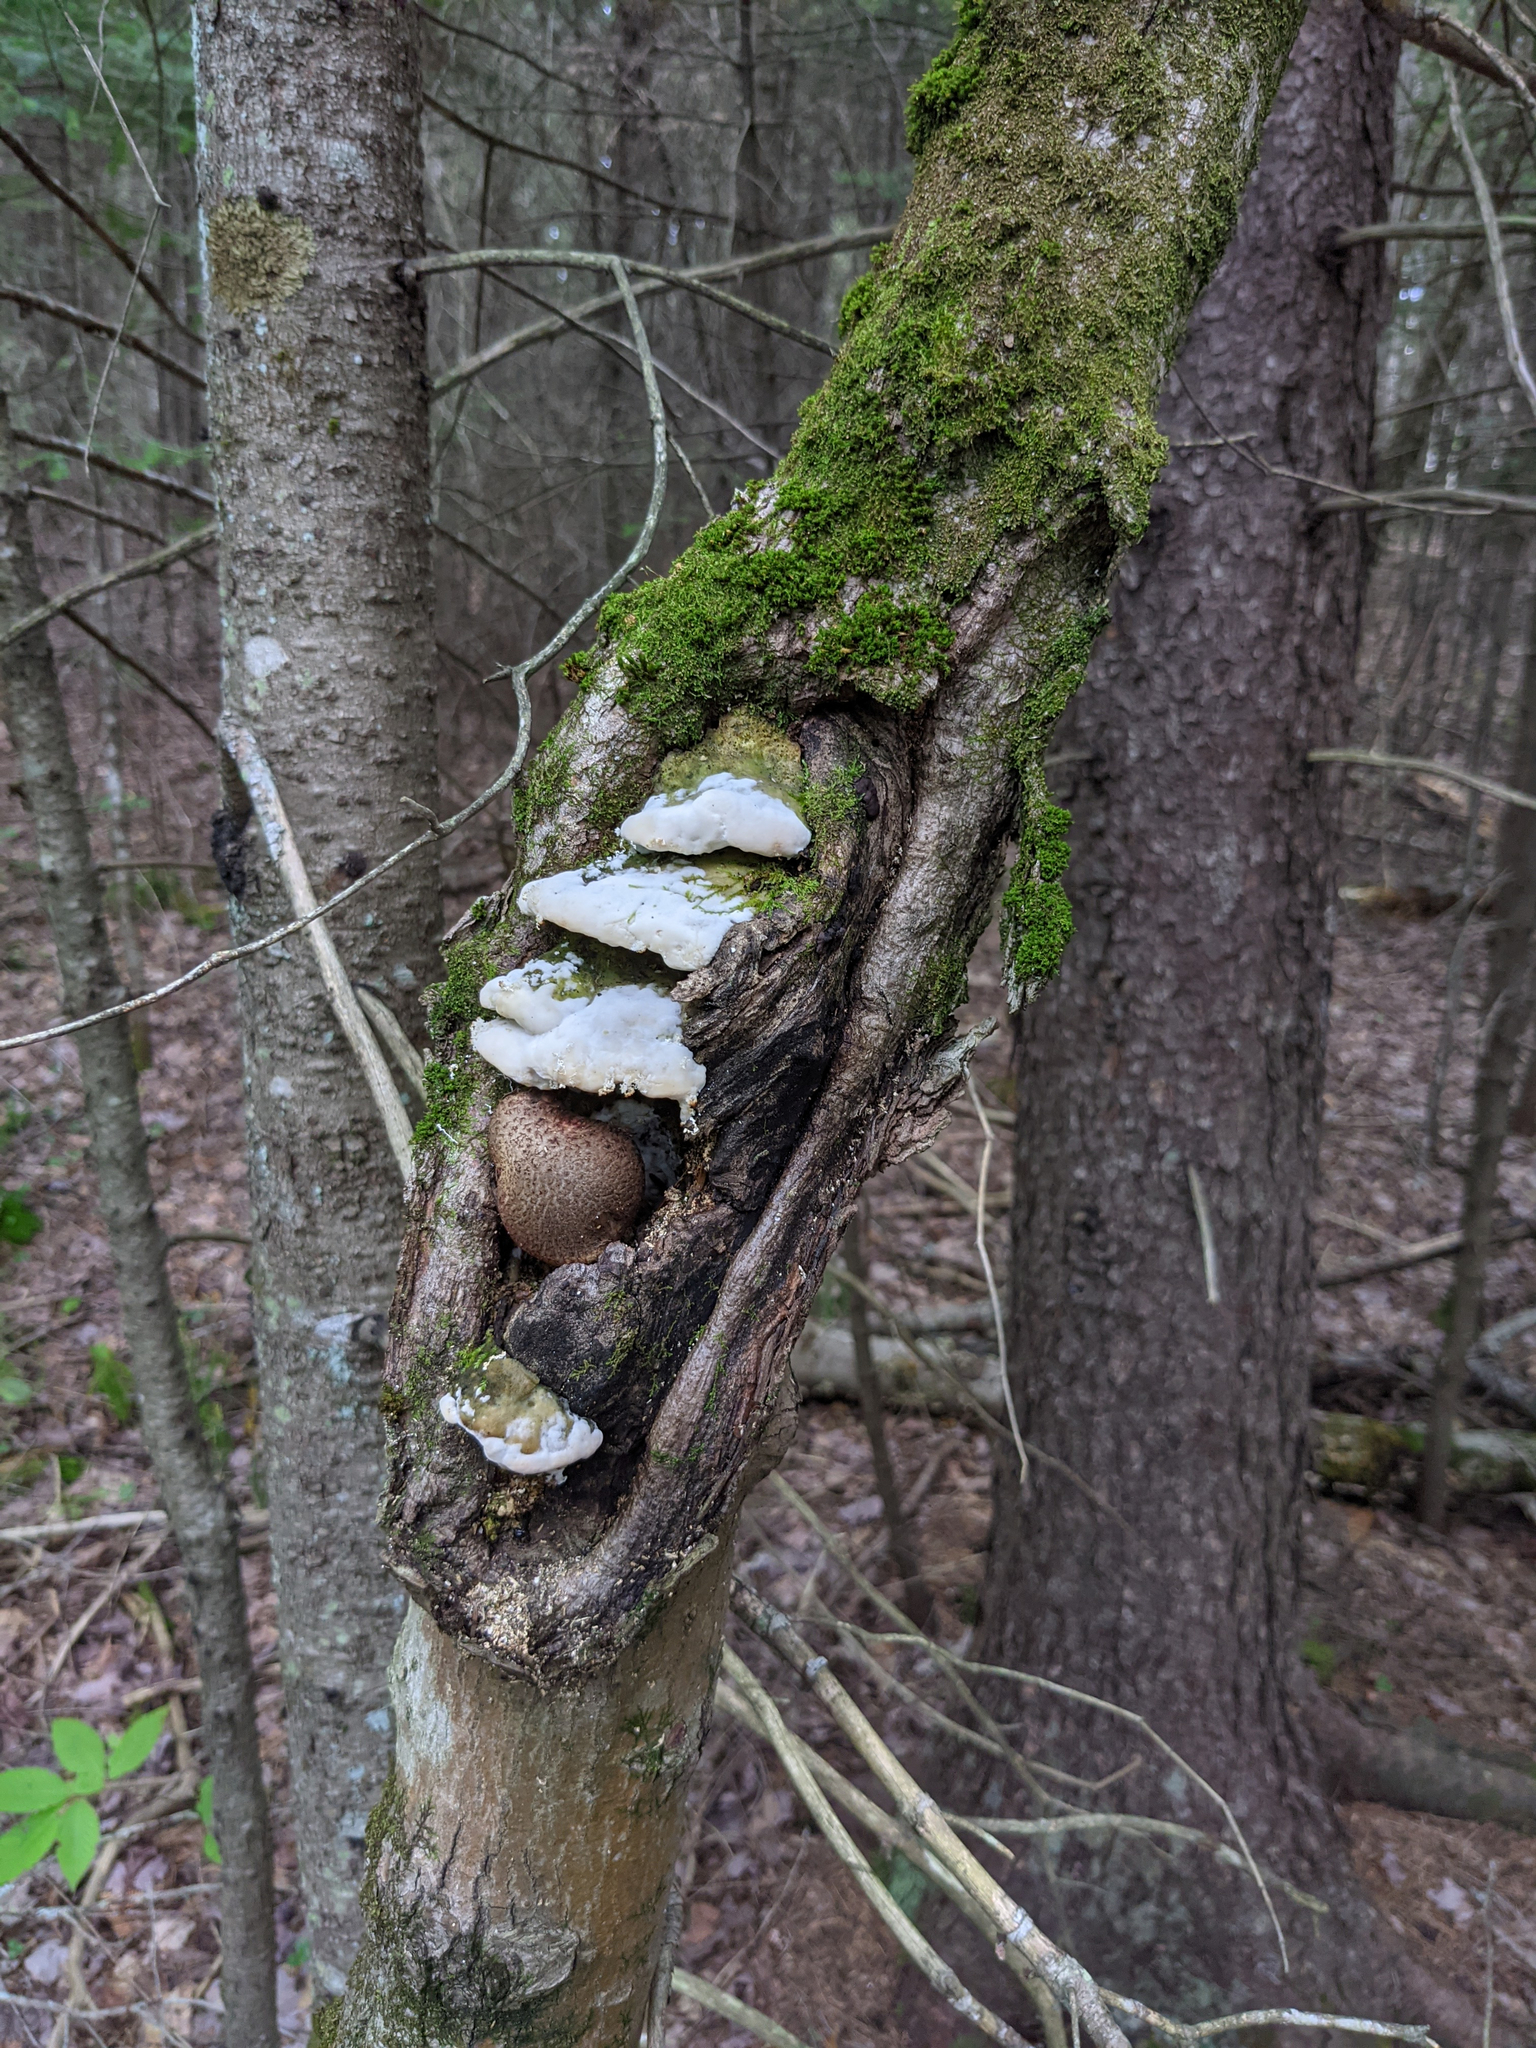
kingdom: Fungi
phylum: Basidiomycota
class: Agaricomycetes
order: Hymenochaetales
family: Oxyporaceae
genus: Oxyporus
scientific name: Oxyporus populinus
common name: Poplar bracket
